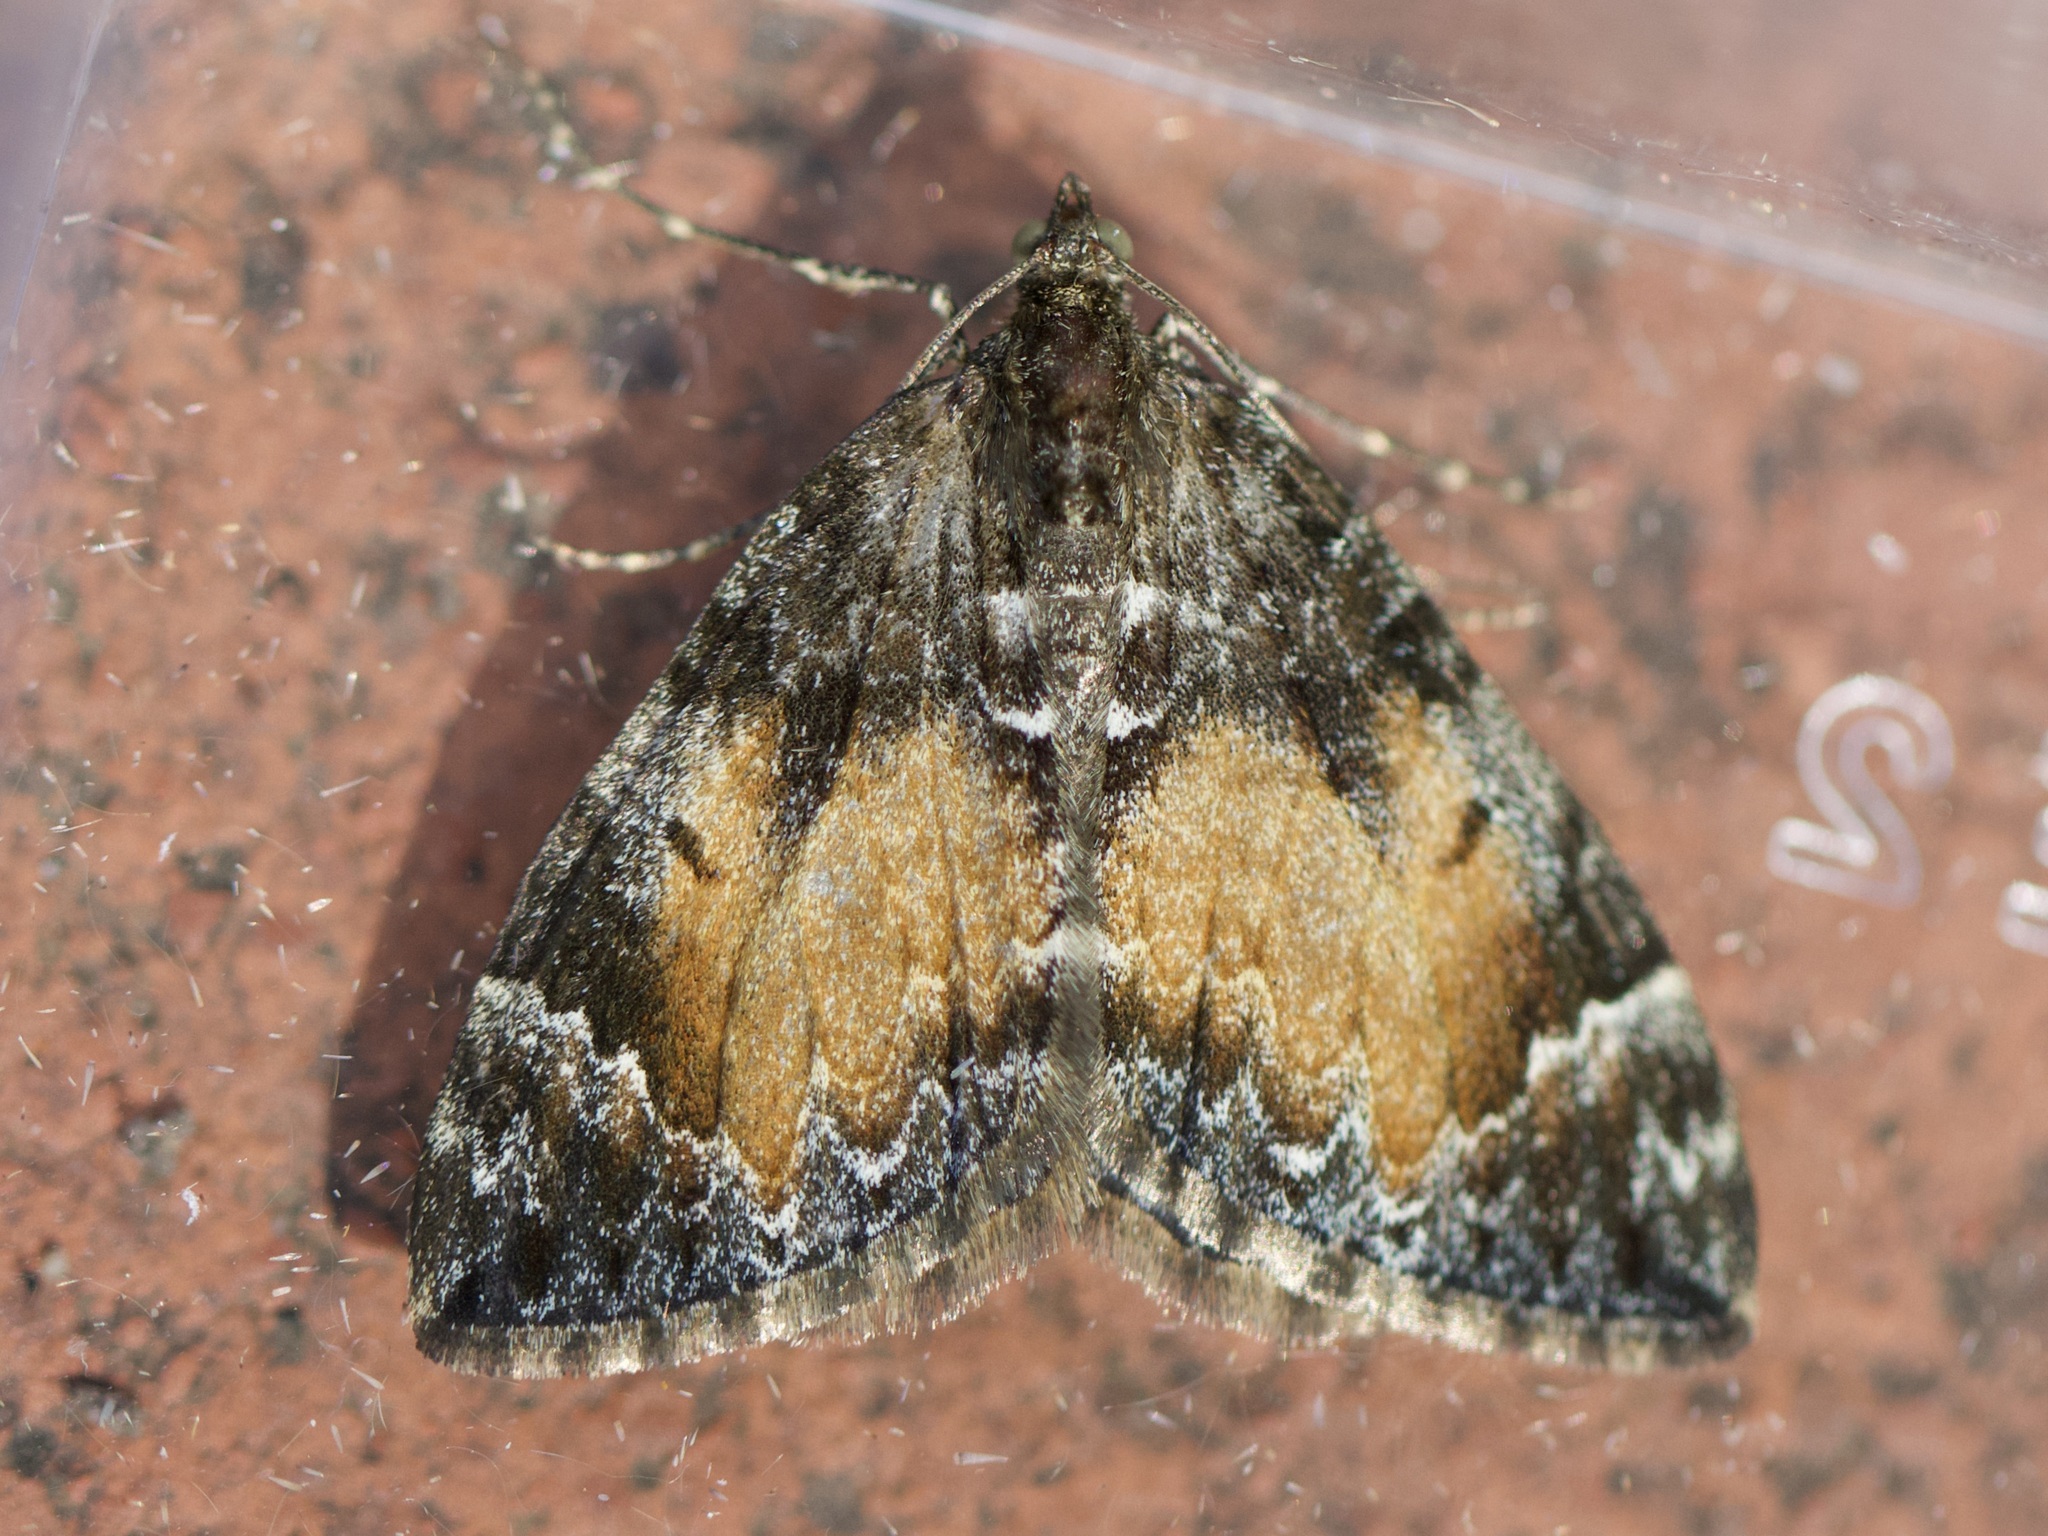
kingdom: Animalia
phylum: Arthropoda
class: Insecta
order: Lepidoptera
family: Geometridae
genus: Dysstroma
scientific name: Dysstroma truncata
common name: Common marbled carpet
